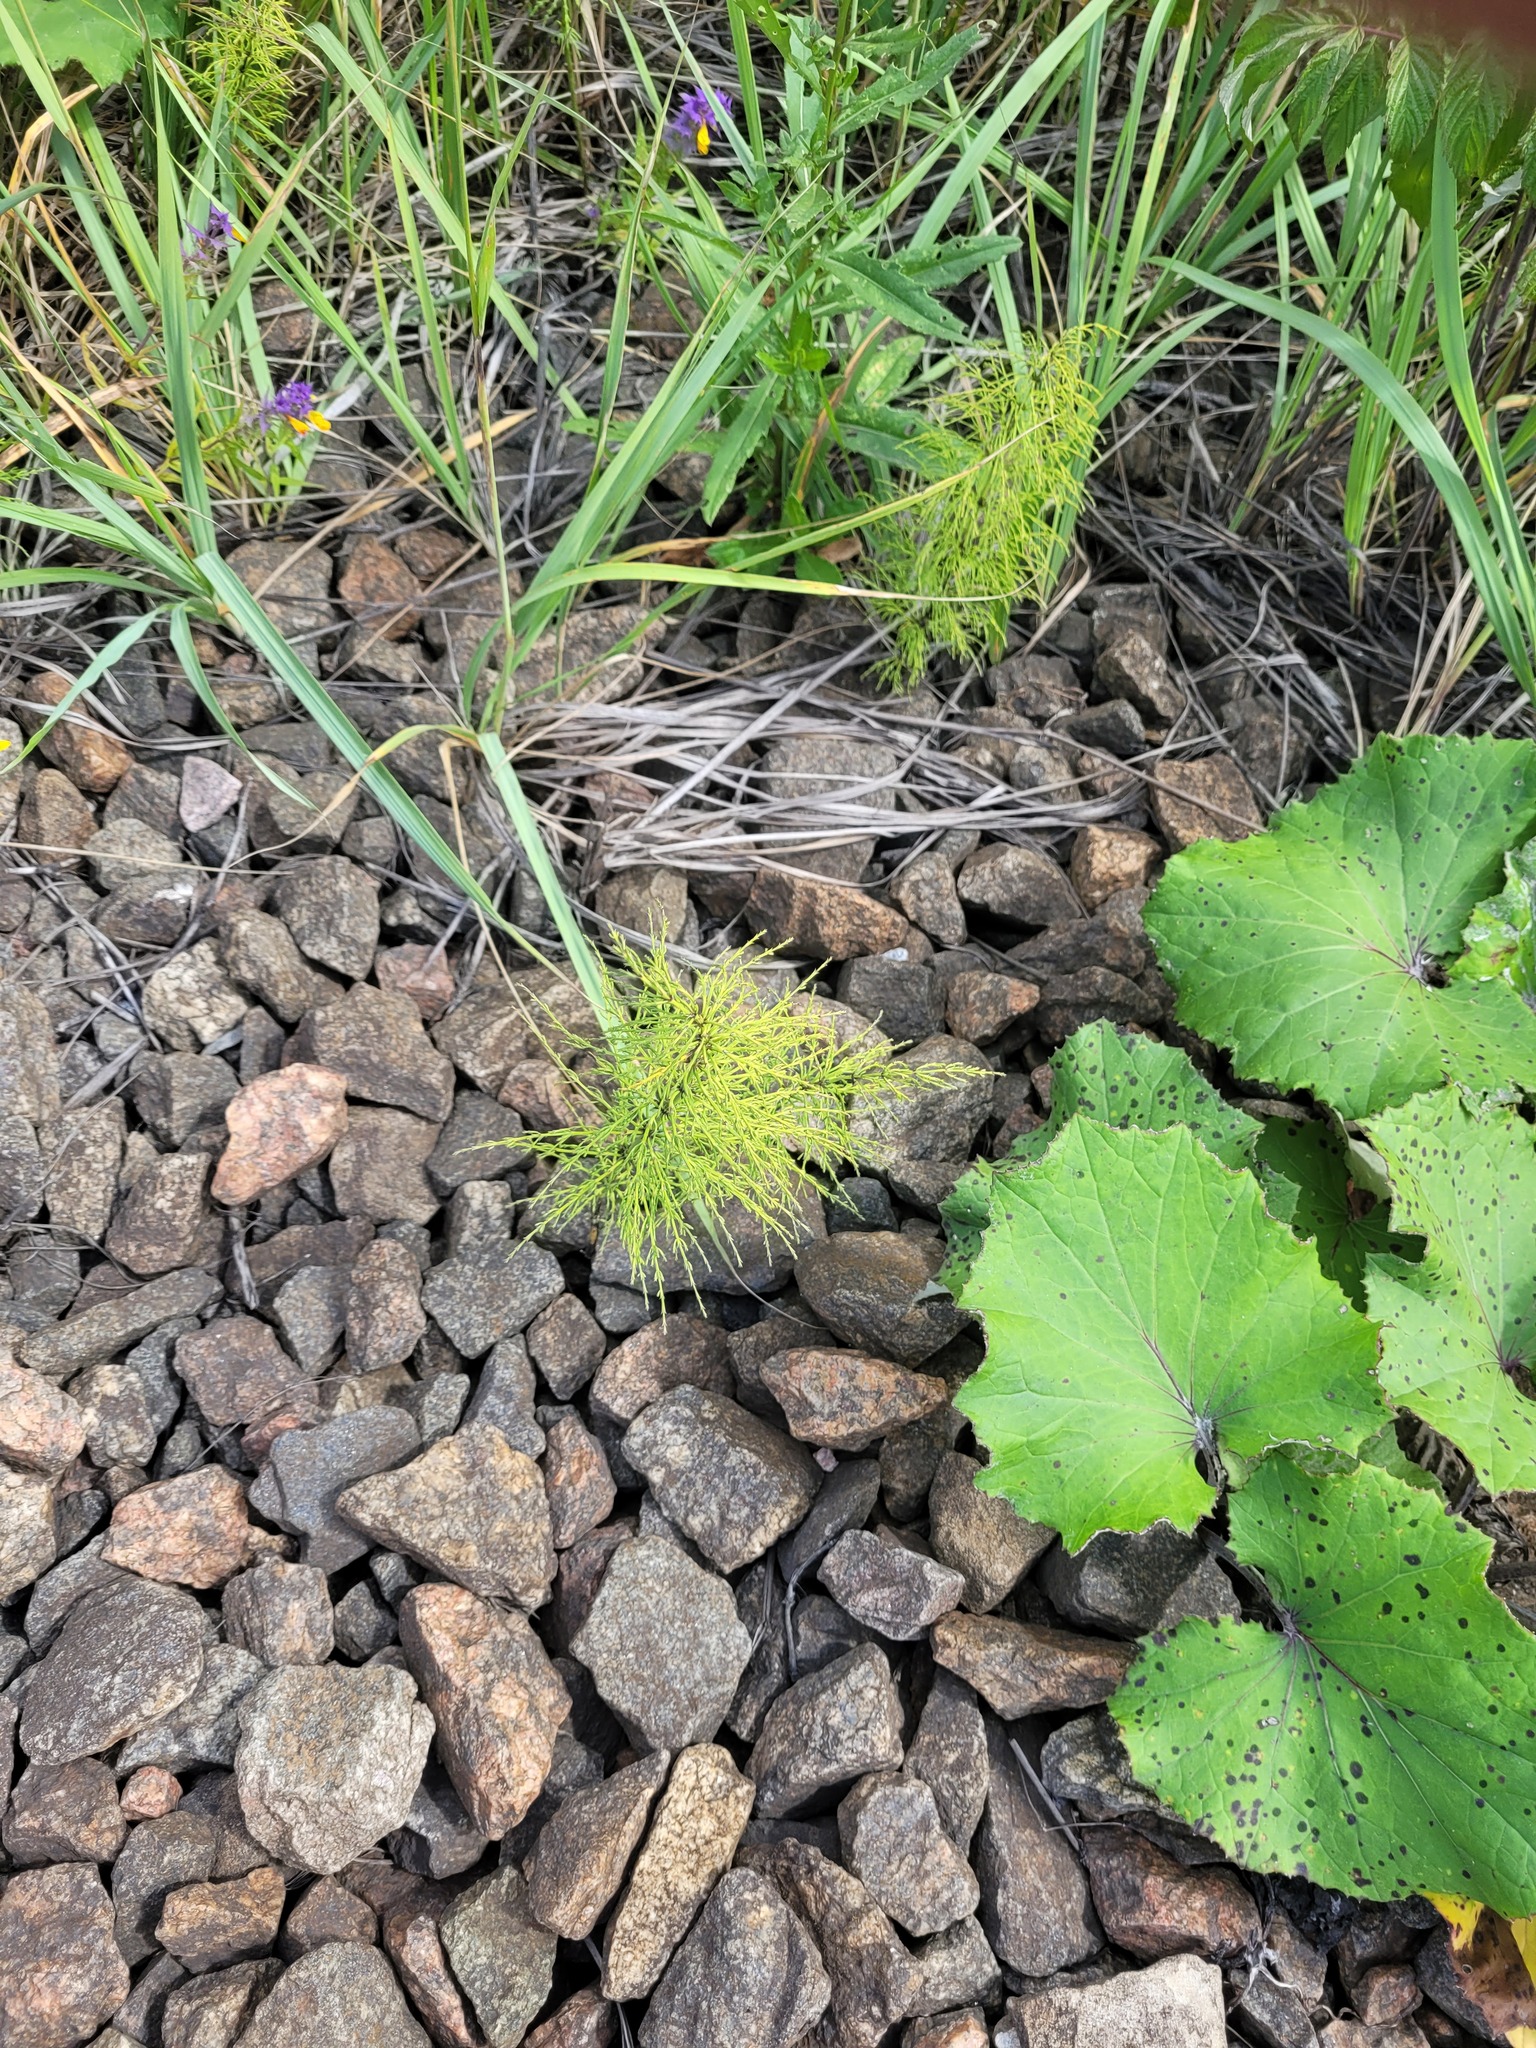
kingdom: Plantae
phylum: Tracheophyta
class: Polypodiopsida
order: Equisetales
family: Equisetaceae
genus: Equisetum
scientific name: Equisetum sylvaticum
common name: Wood horsetail
